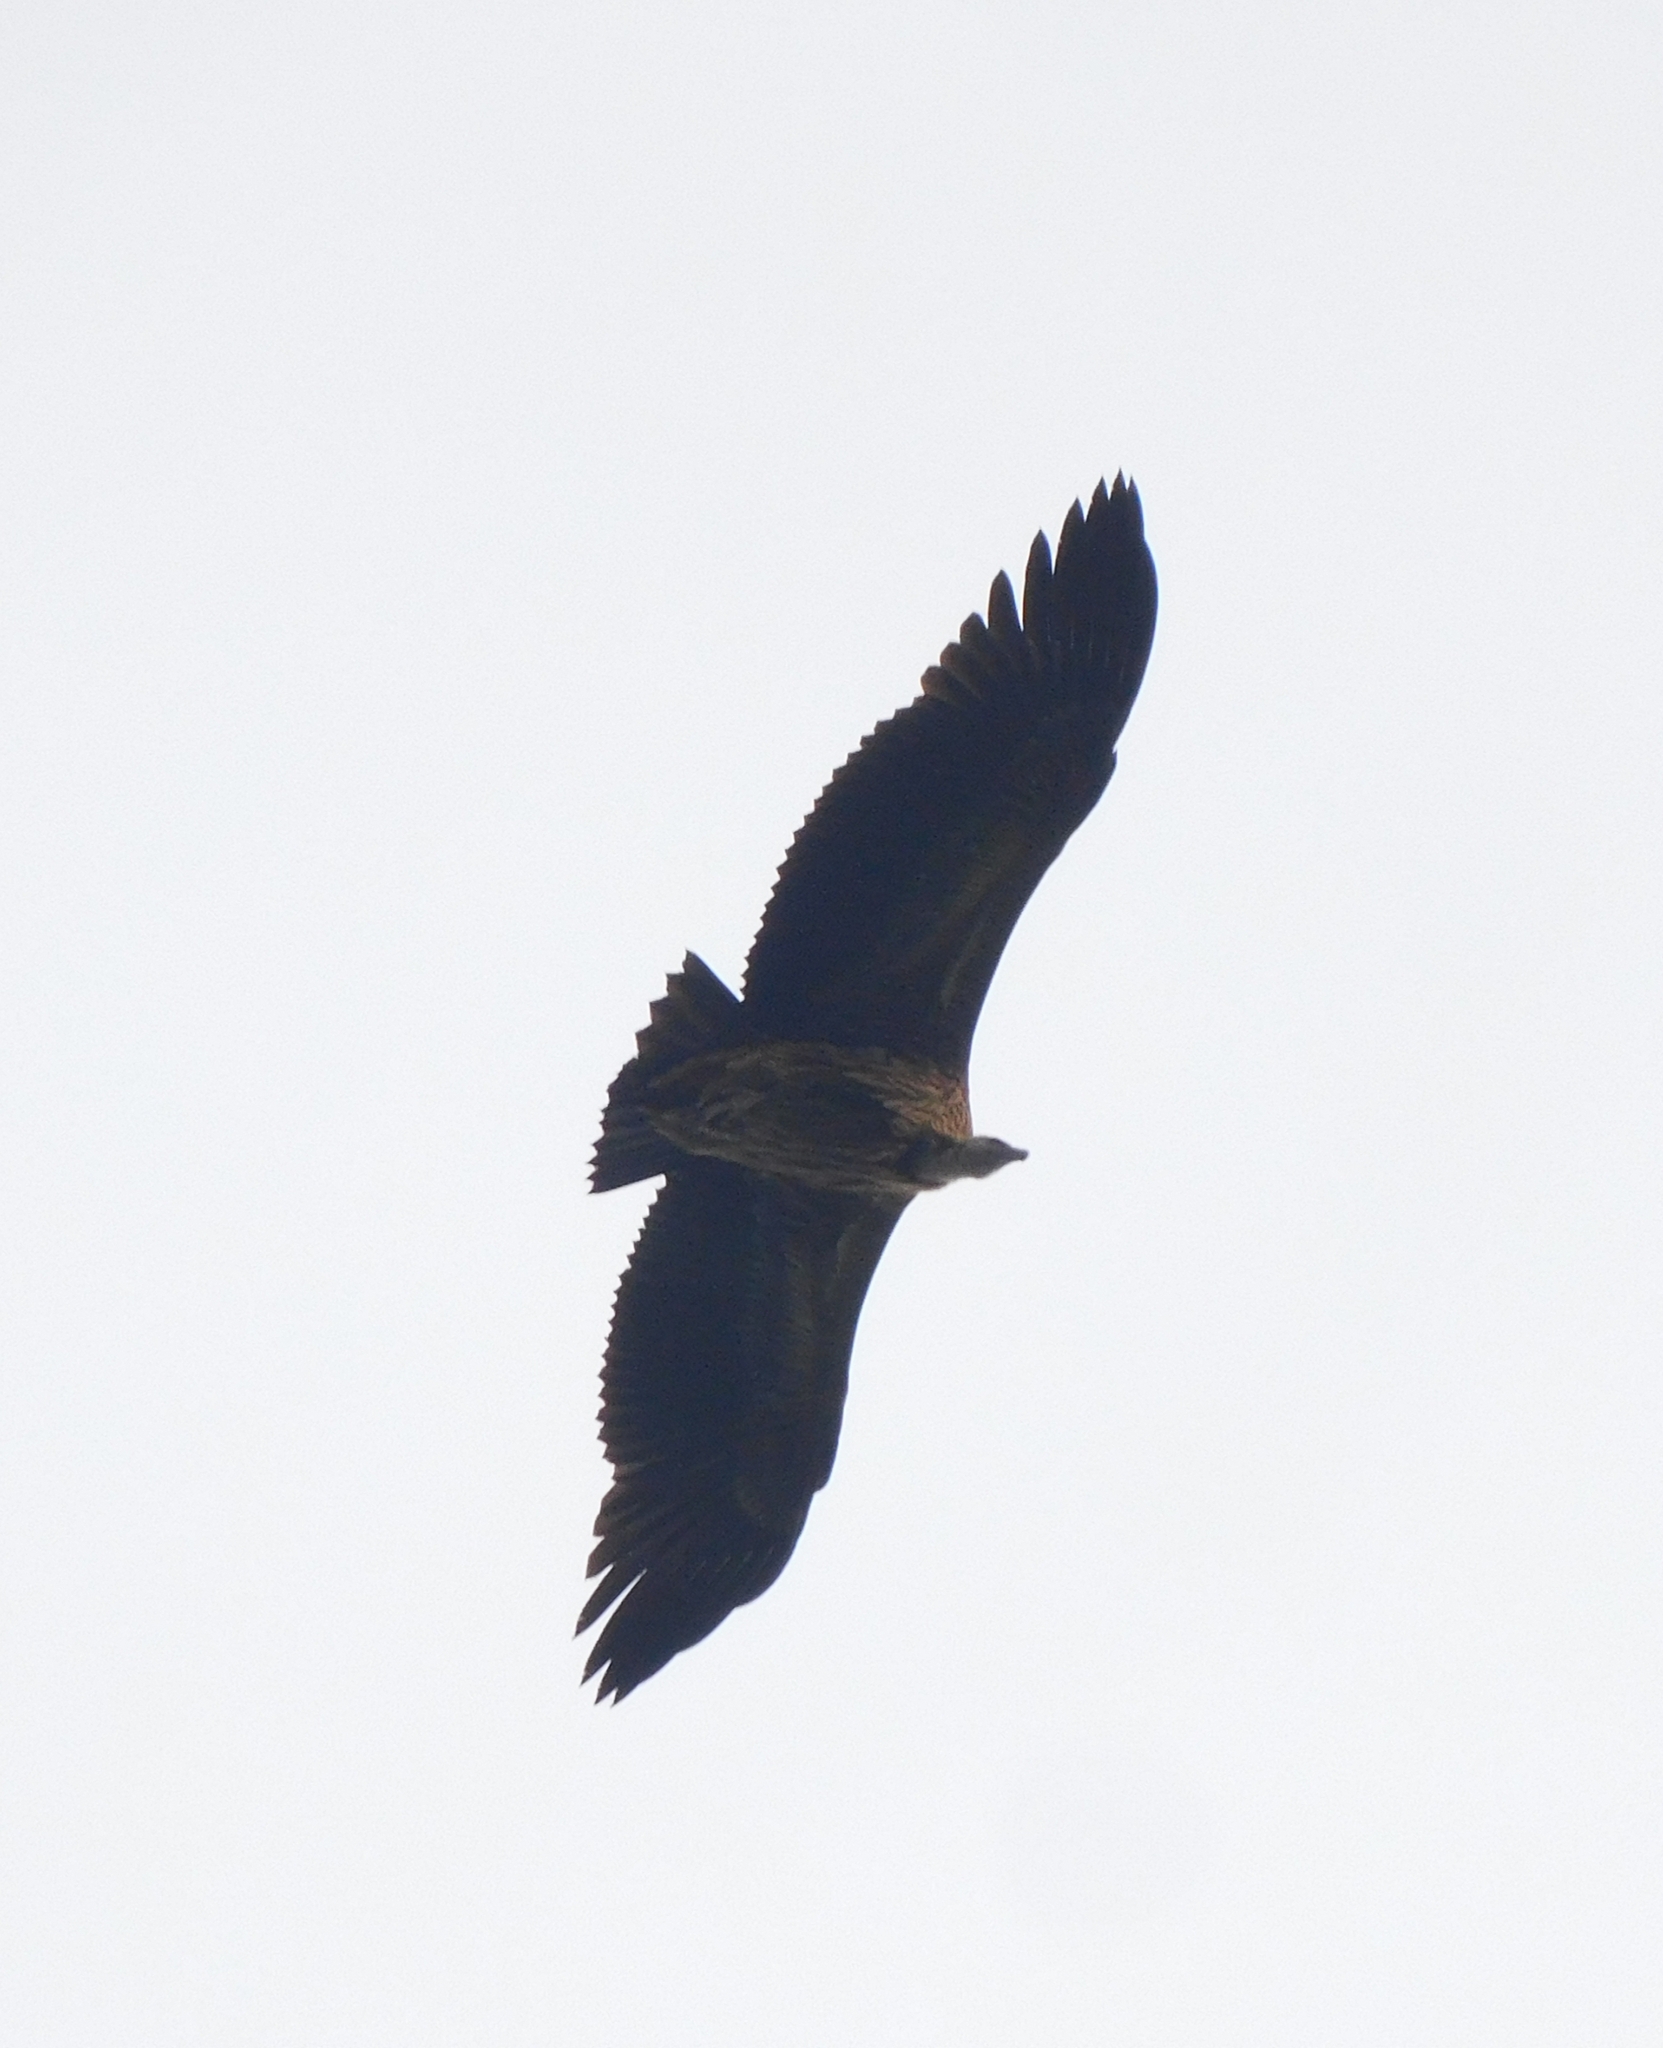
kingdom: Animalia
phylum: Chordata
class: Aves
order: Accipitriformes
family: Accipitridae
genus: Gyps
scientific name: Gyps himalayensis
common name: Himalayan griffon
